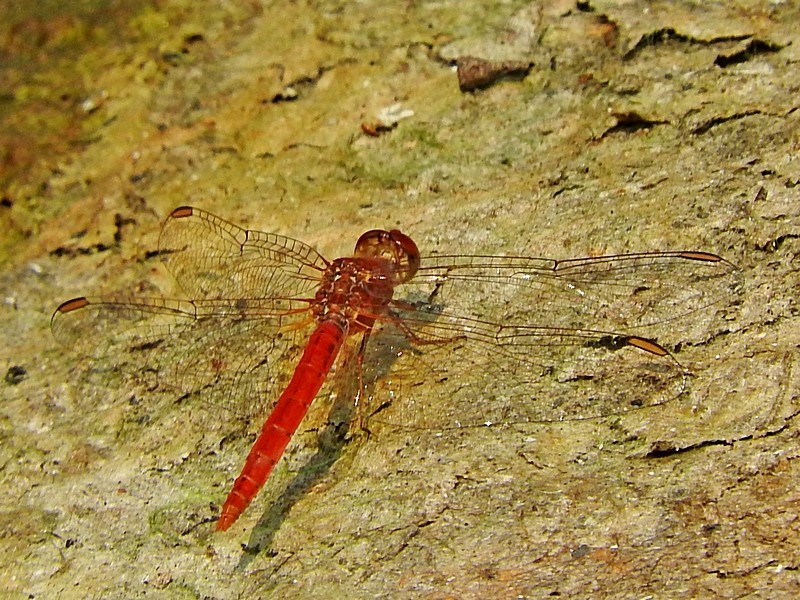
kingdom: Animalia
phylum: Arthropoda
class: Insecta
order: Odonata
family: Libellulidae
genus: Diplacodes
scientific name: Diplacodes haematodes
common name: Scarlet percher
